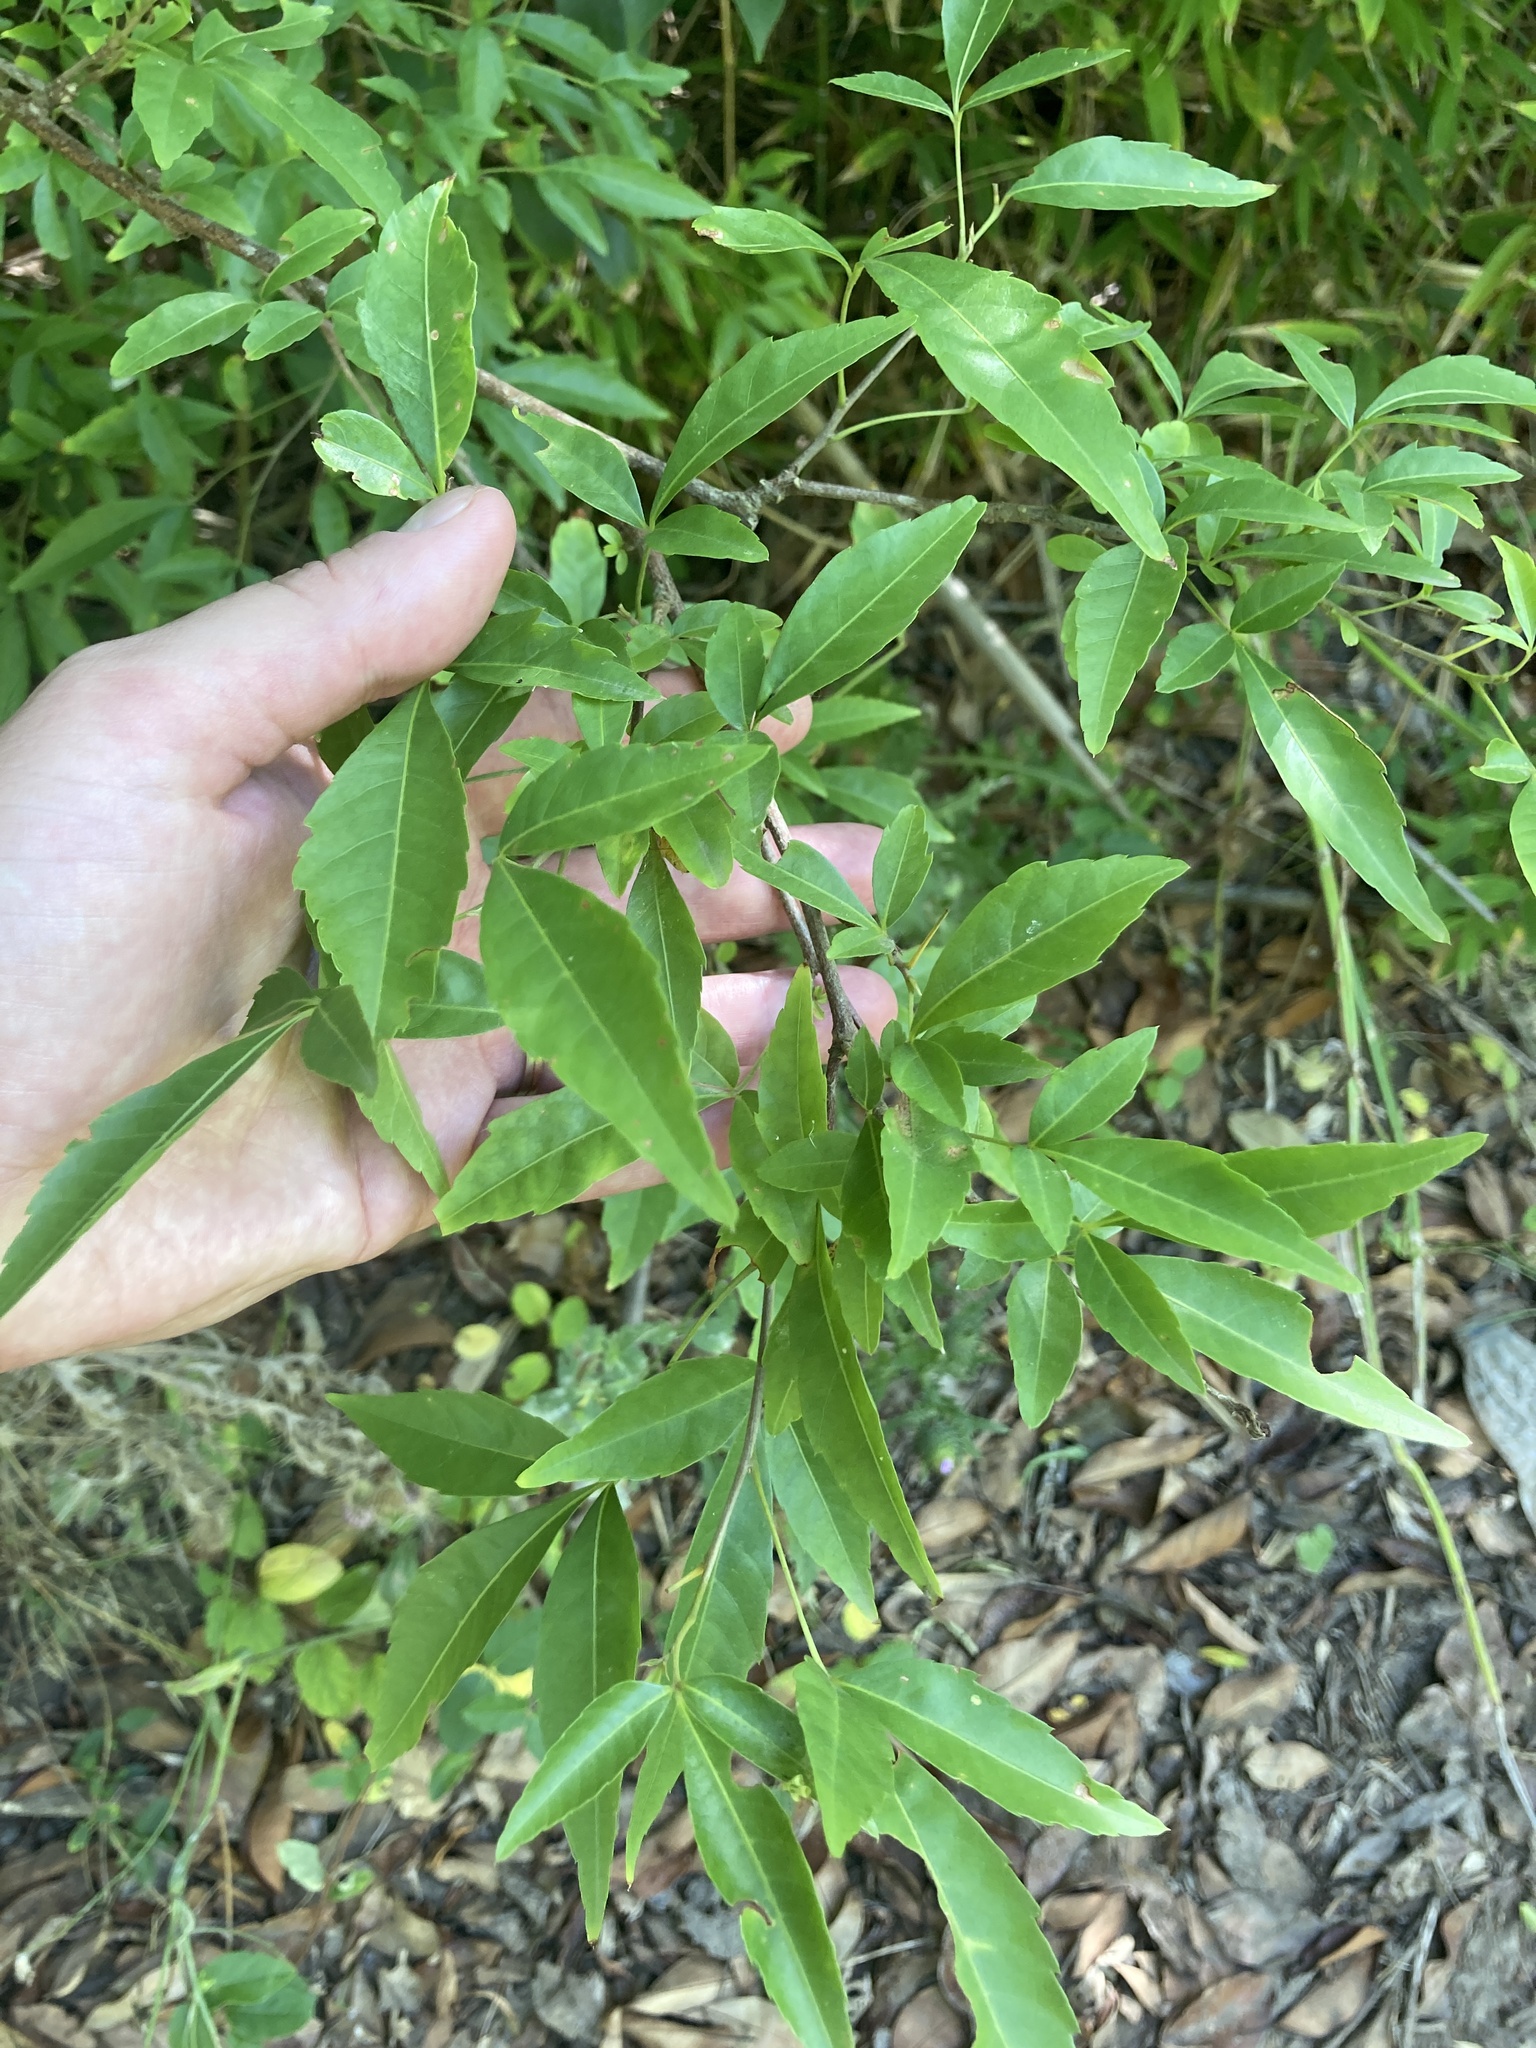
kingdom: Plantae
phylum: Tracheophyta
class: Magnoliopsida
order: Sapindales
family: Sapindaceae
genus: Allophylus
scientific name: Allophylus edulis
